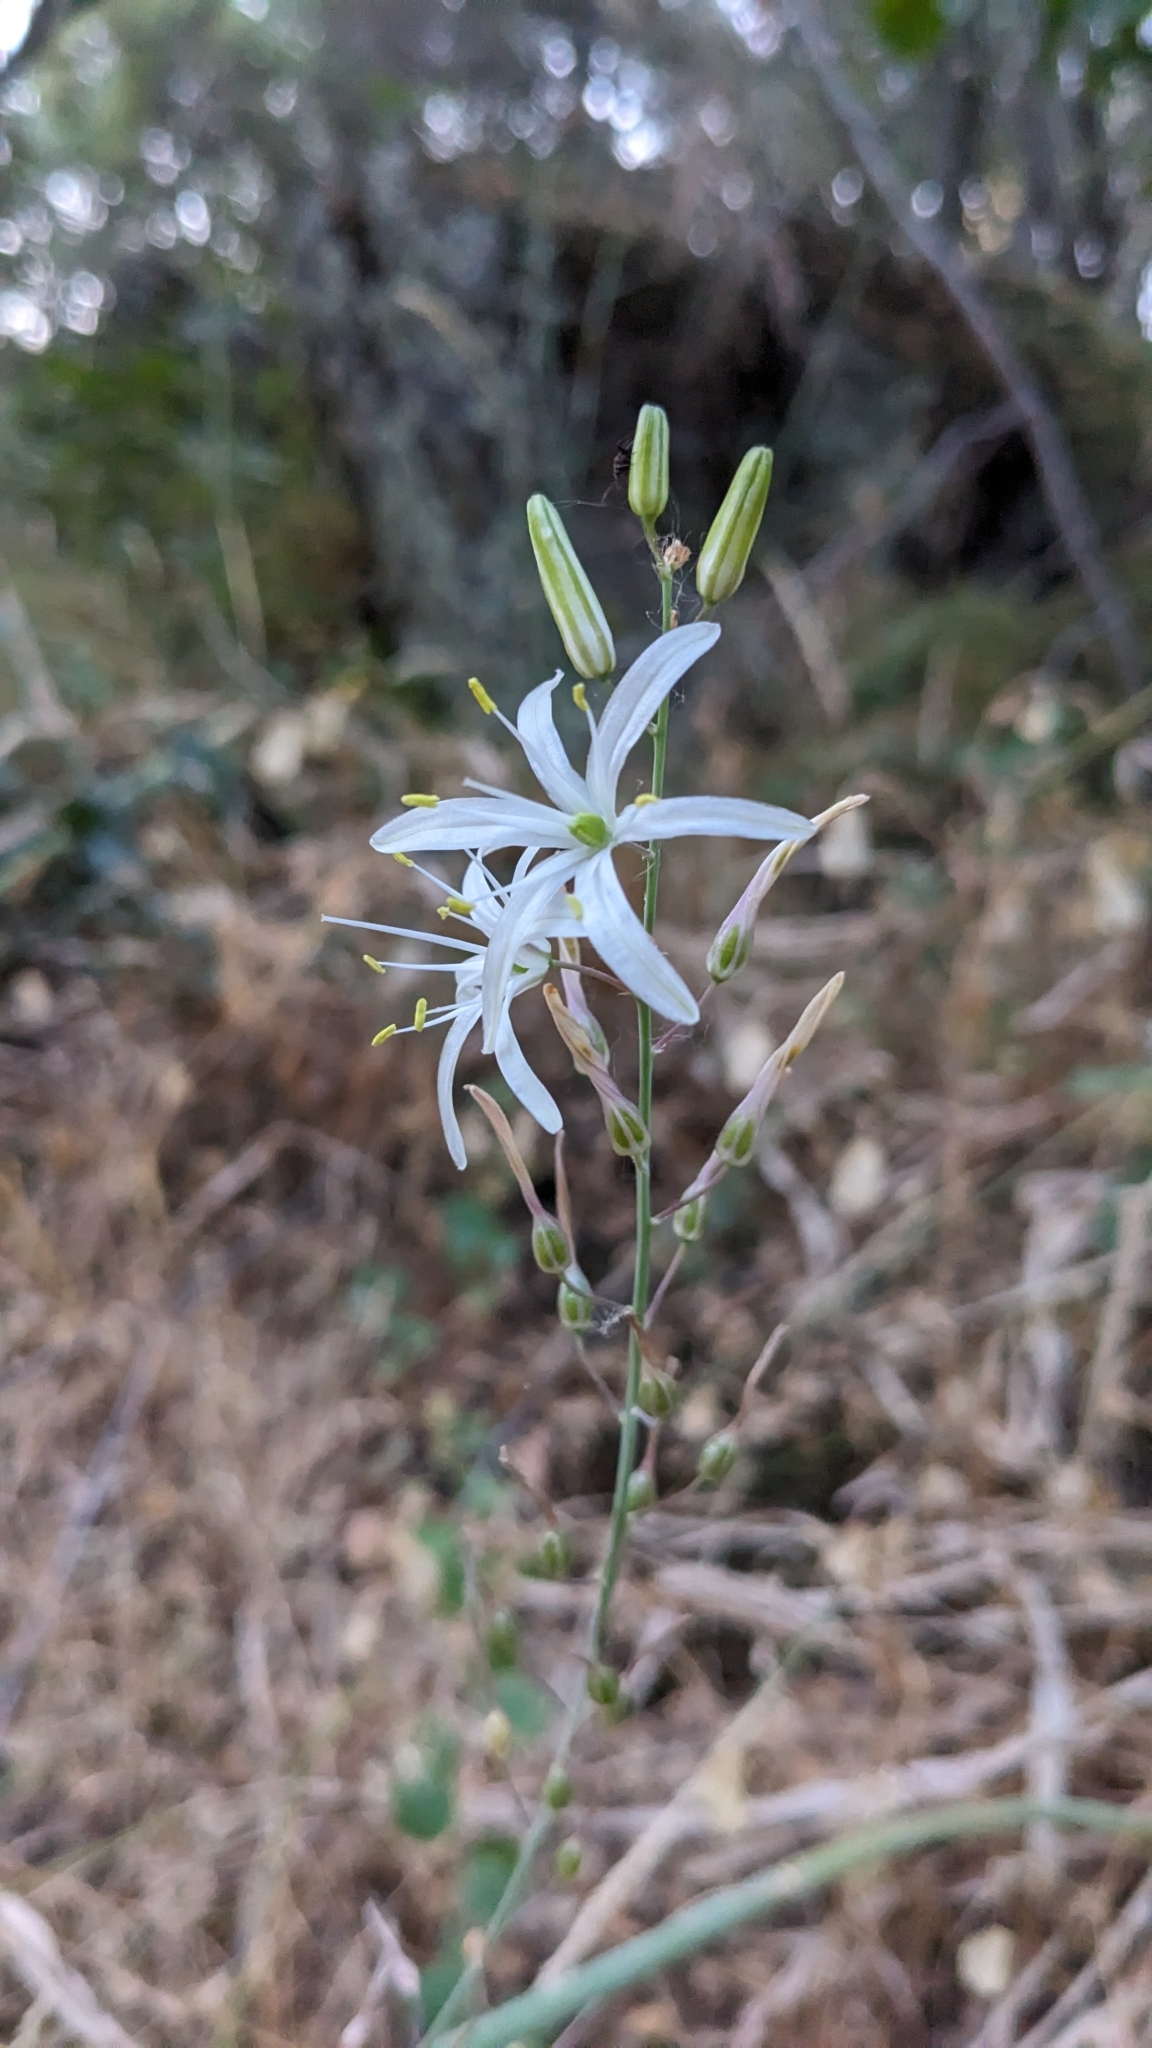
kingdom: Plantae
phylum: Tracheophyta
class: Liliopsida
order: Asparagales
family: Asparagaceae
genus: Chlorogalum
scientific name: Chlorogalum pomeridianum
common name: Amole
